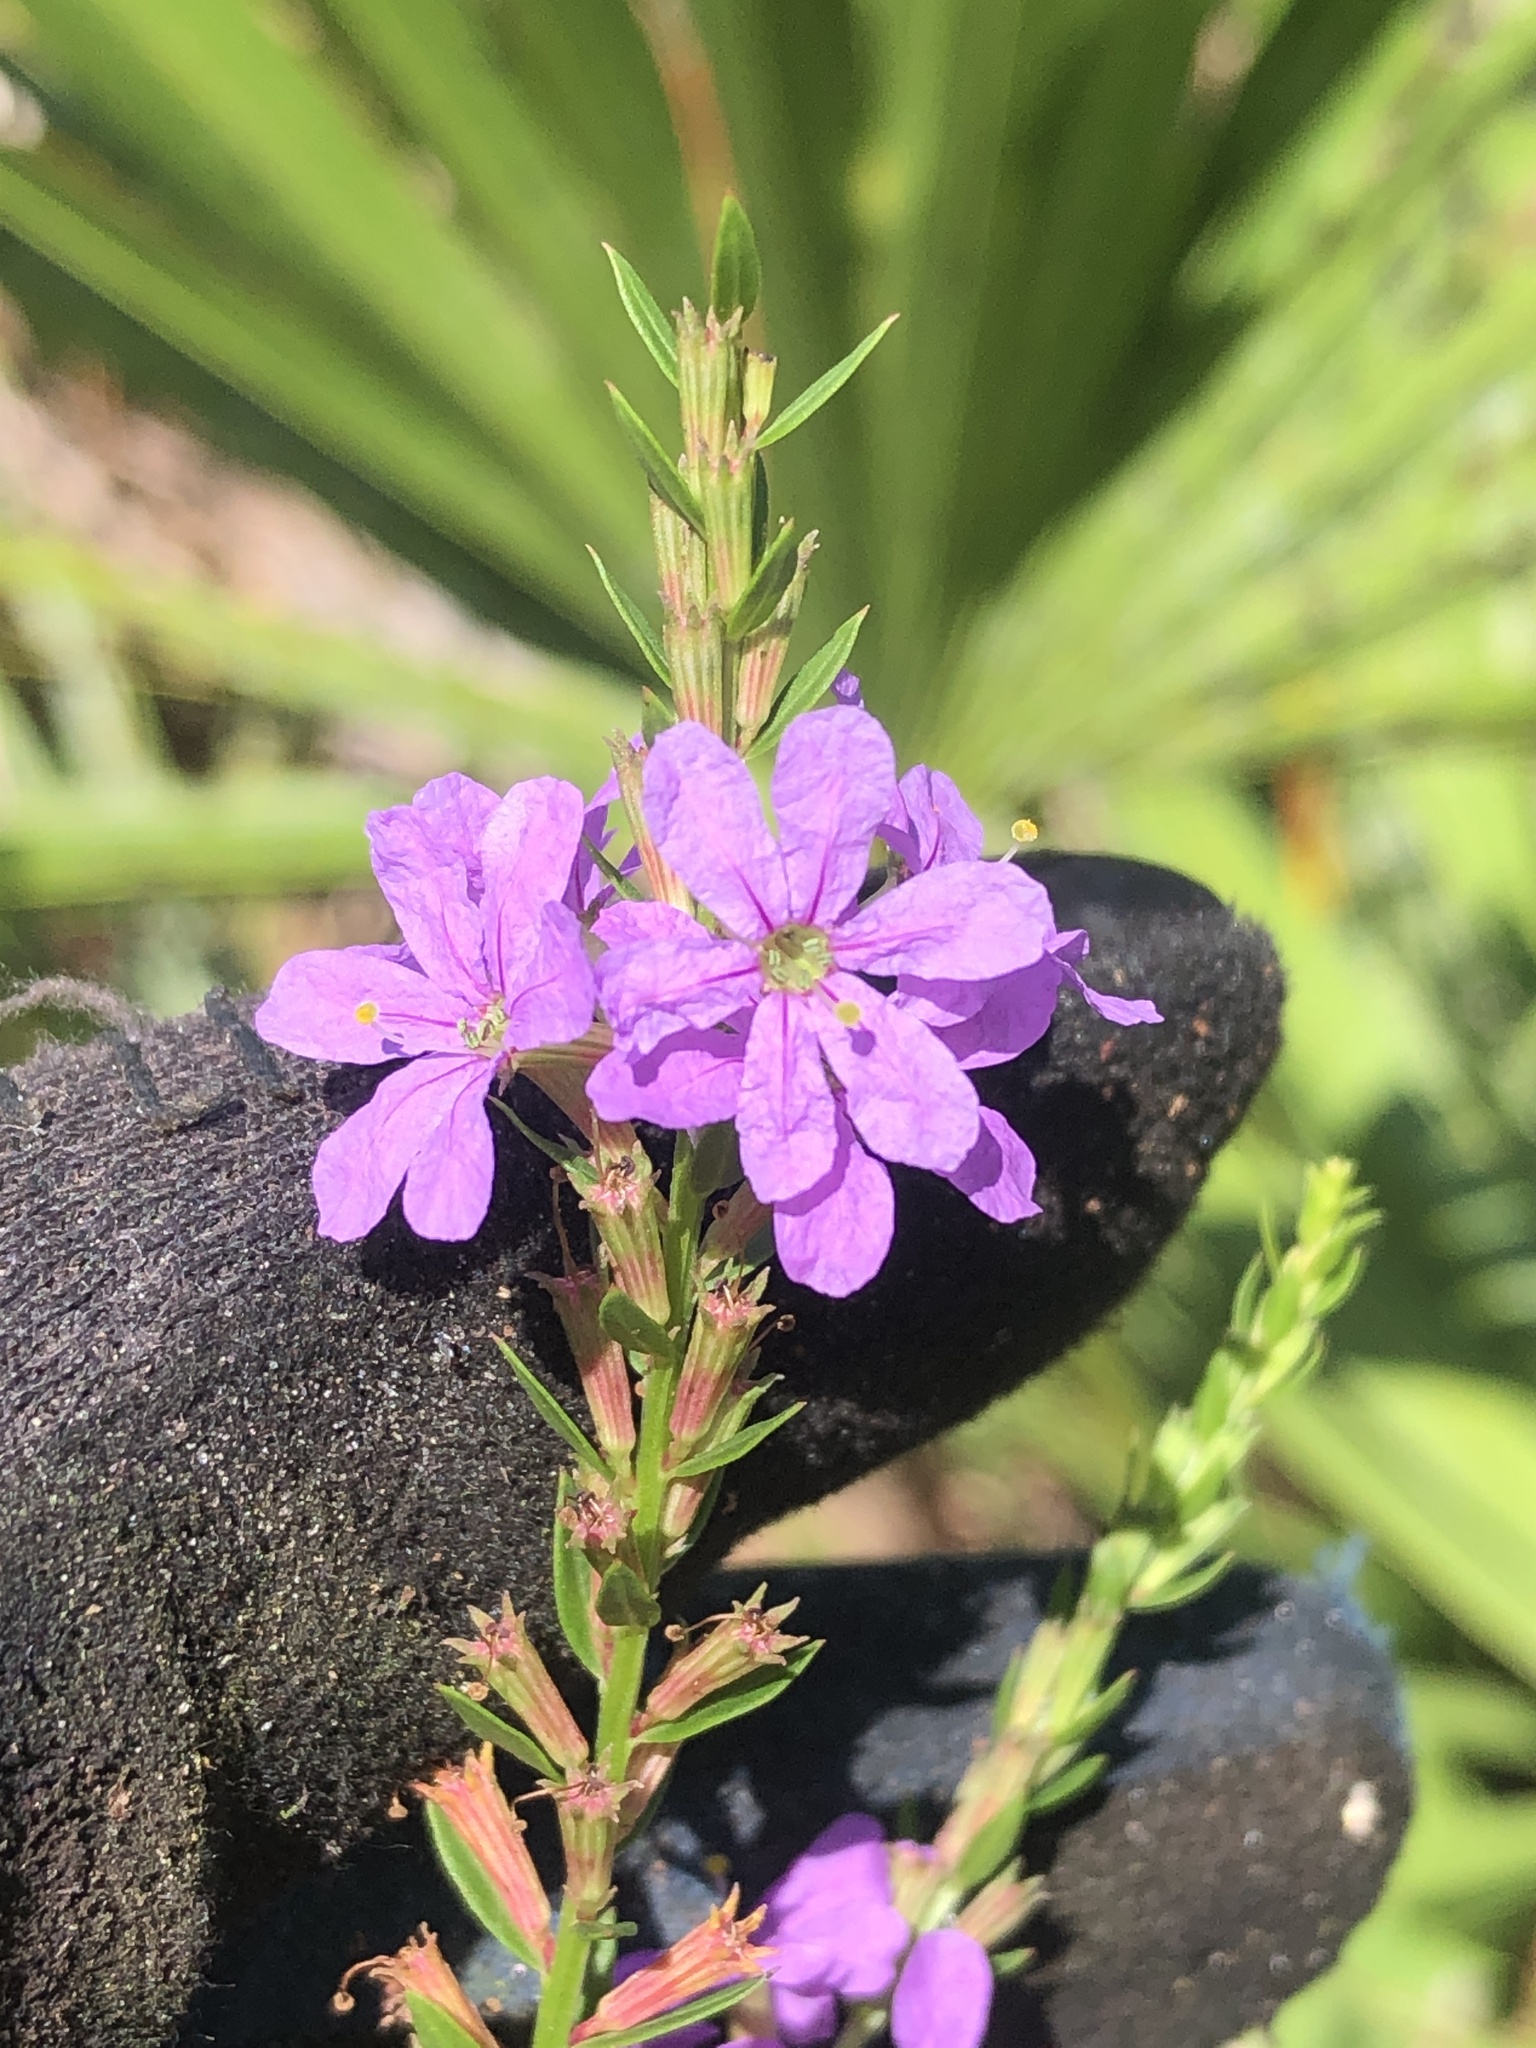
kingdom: Plantae
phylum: Tracheophyta
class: Magnoliopsida
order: Myrtales
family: Lythraceae
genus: Lythrum
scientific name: Lythrum alatum
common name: Winged loosestrife
